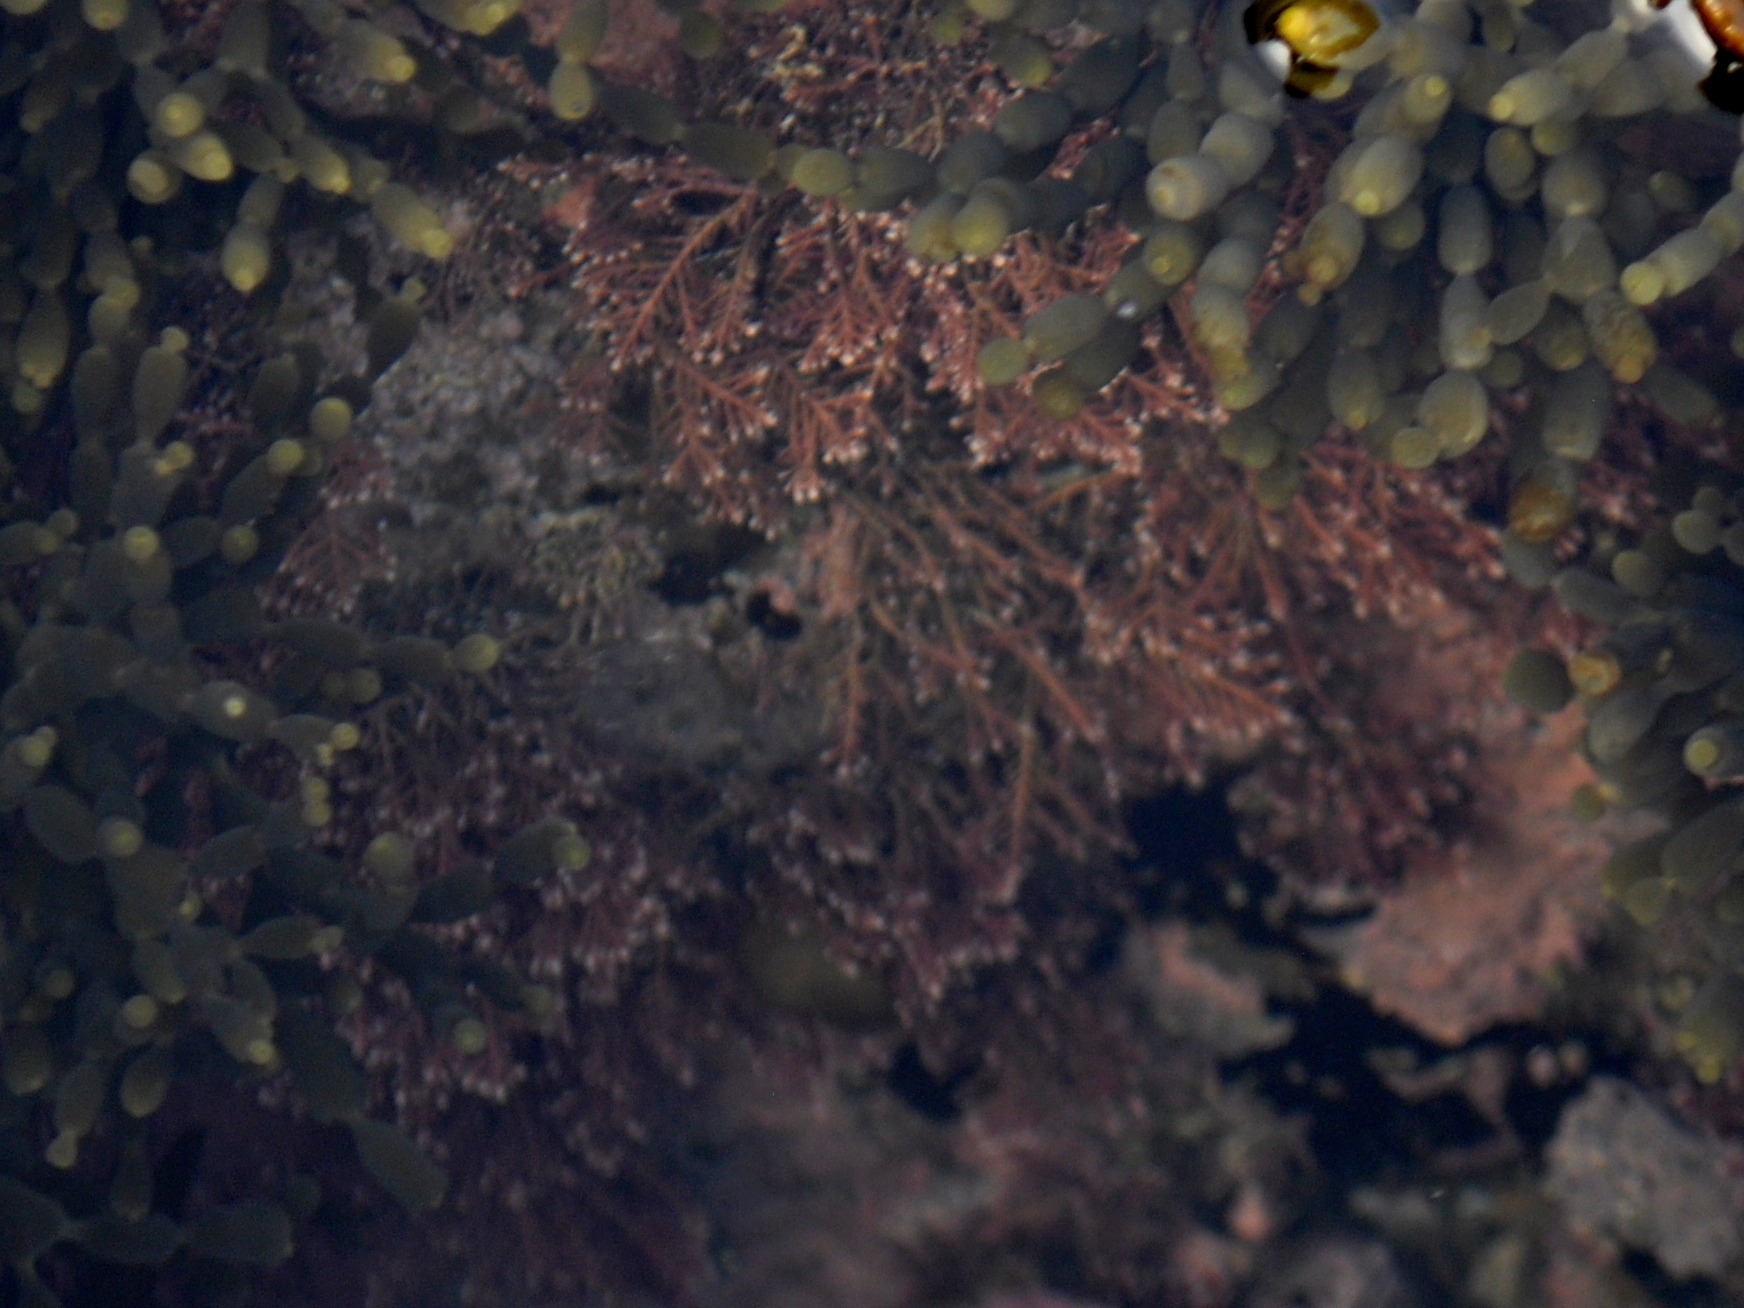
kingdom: Plantae
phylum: Rhodophyta
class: Florideophyceae
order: Corallinales
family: Corallinaceae
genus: Corallina
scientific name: Corallina officinalis
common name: Coral weed
